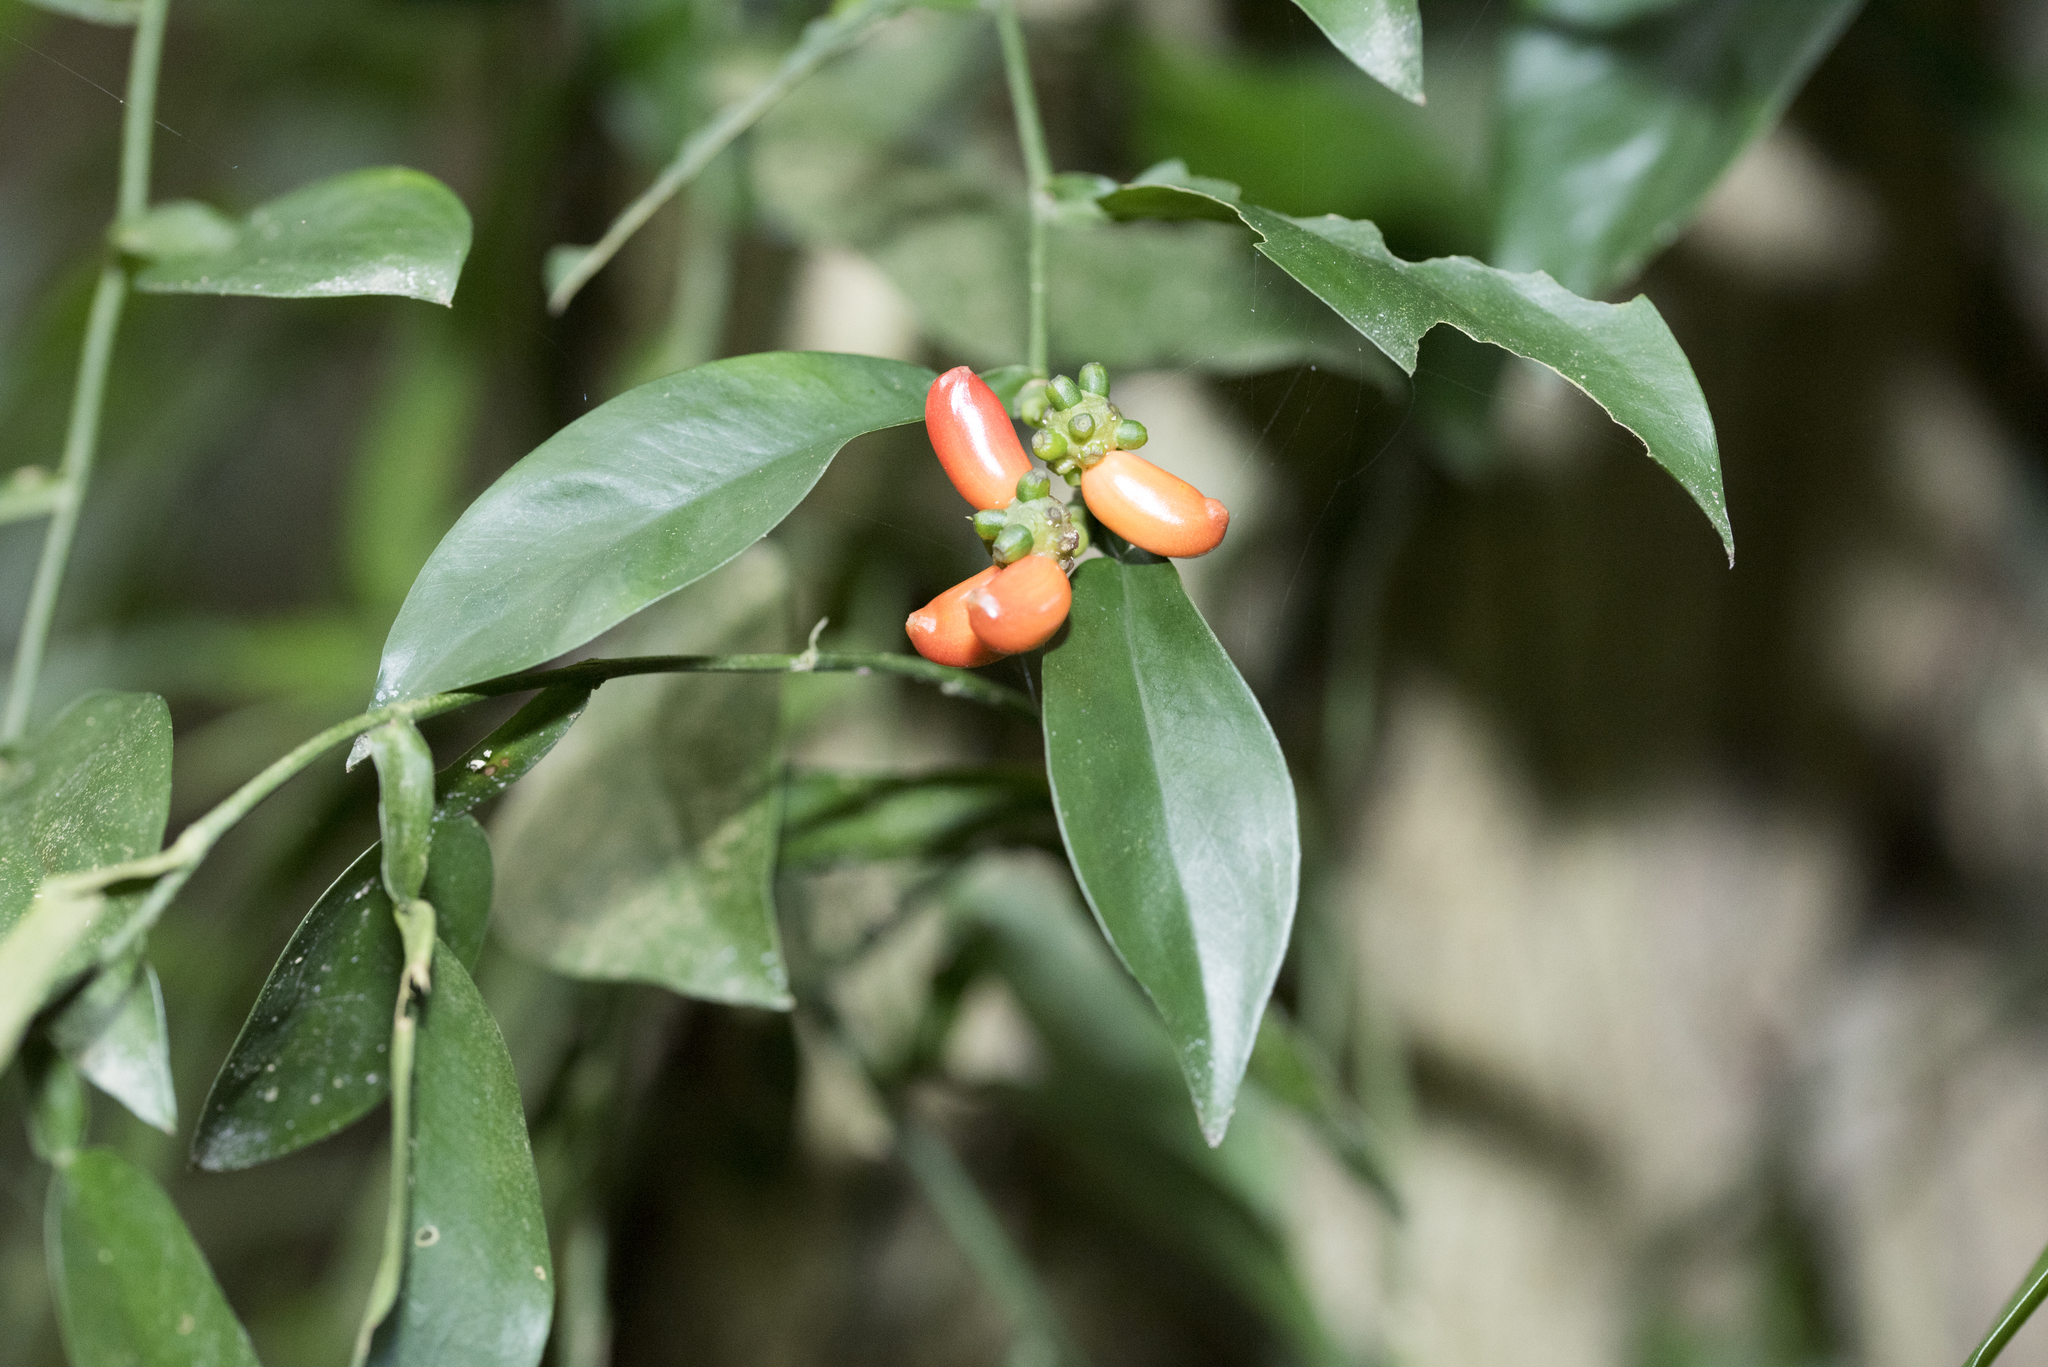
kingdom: Plantae
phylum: Tracheophyta
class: Liliopsida
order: Alismatales
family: Araceae
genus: Pothos
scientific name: Pothos chinensis
